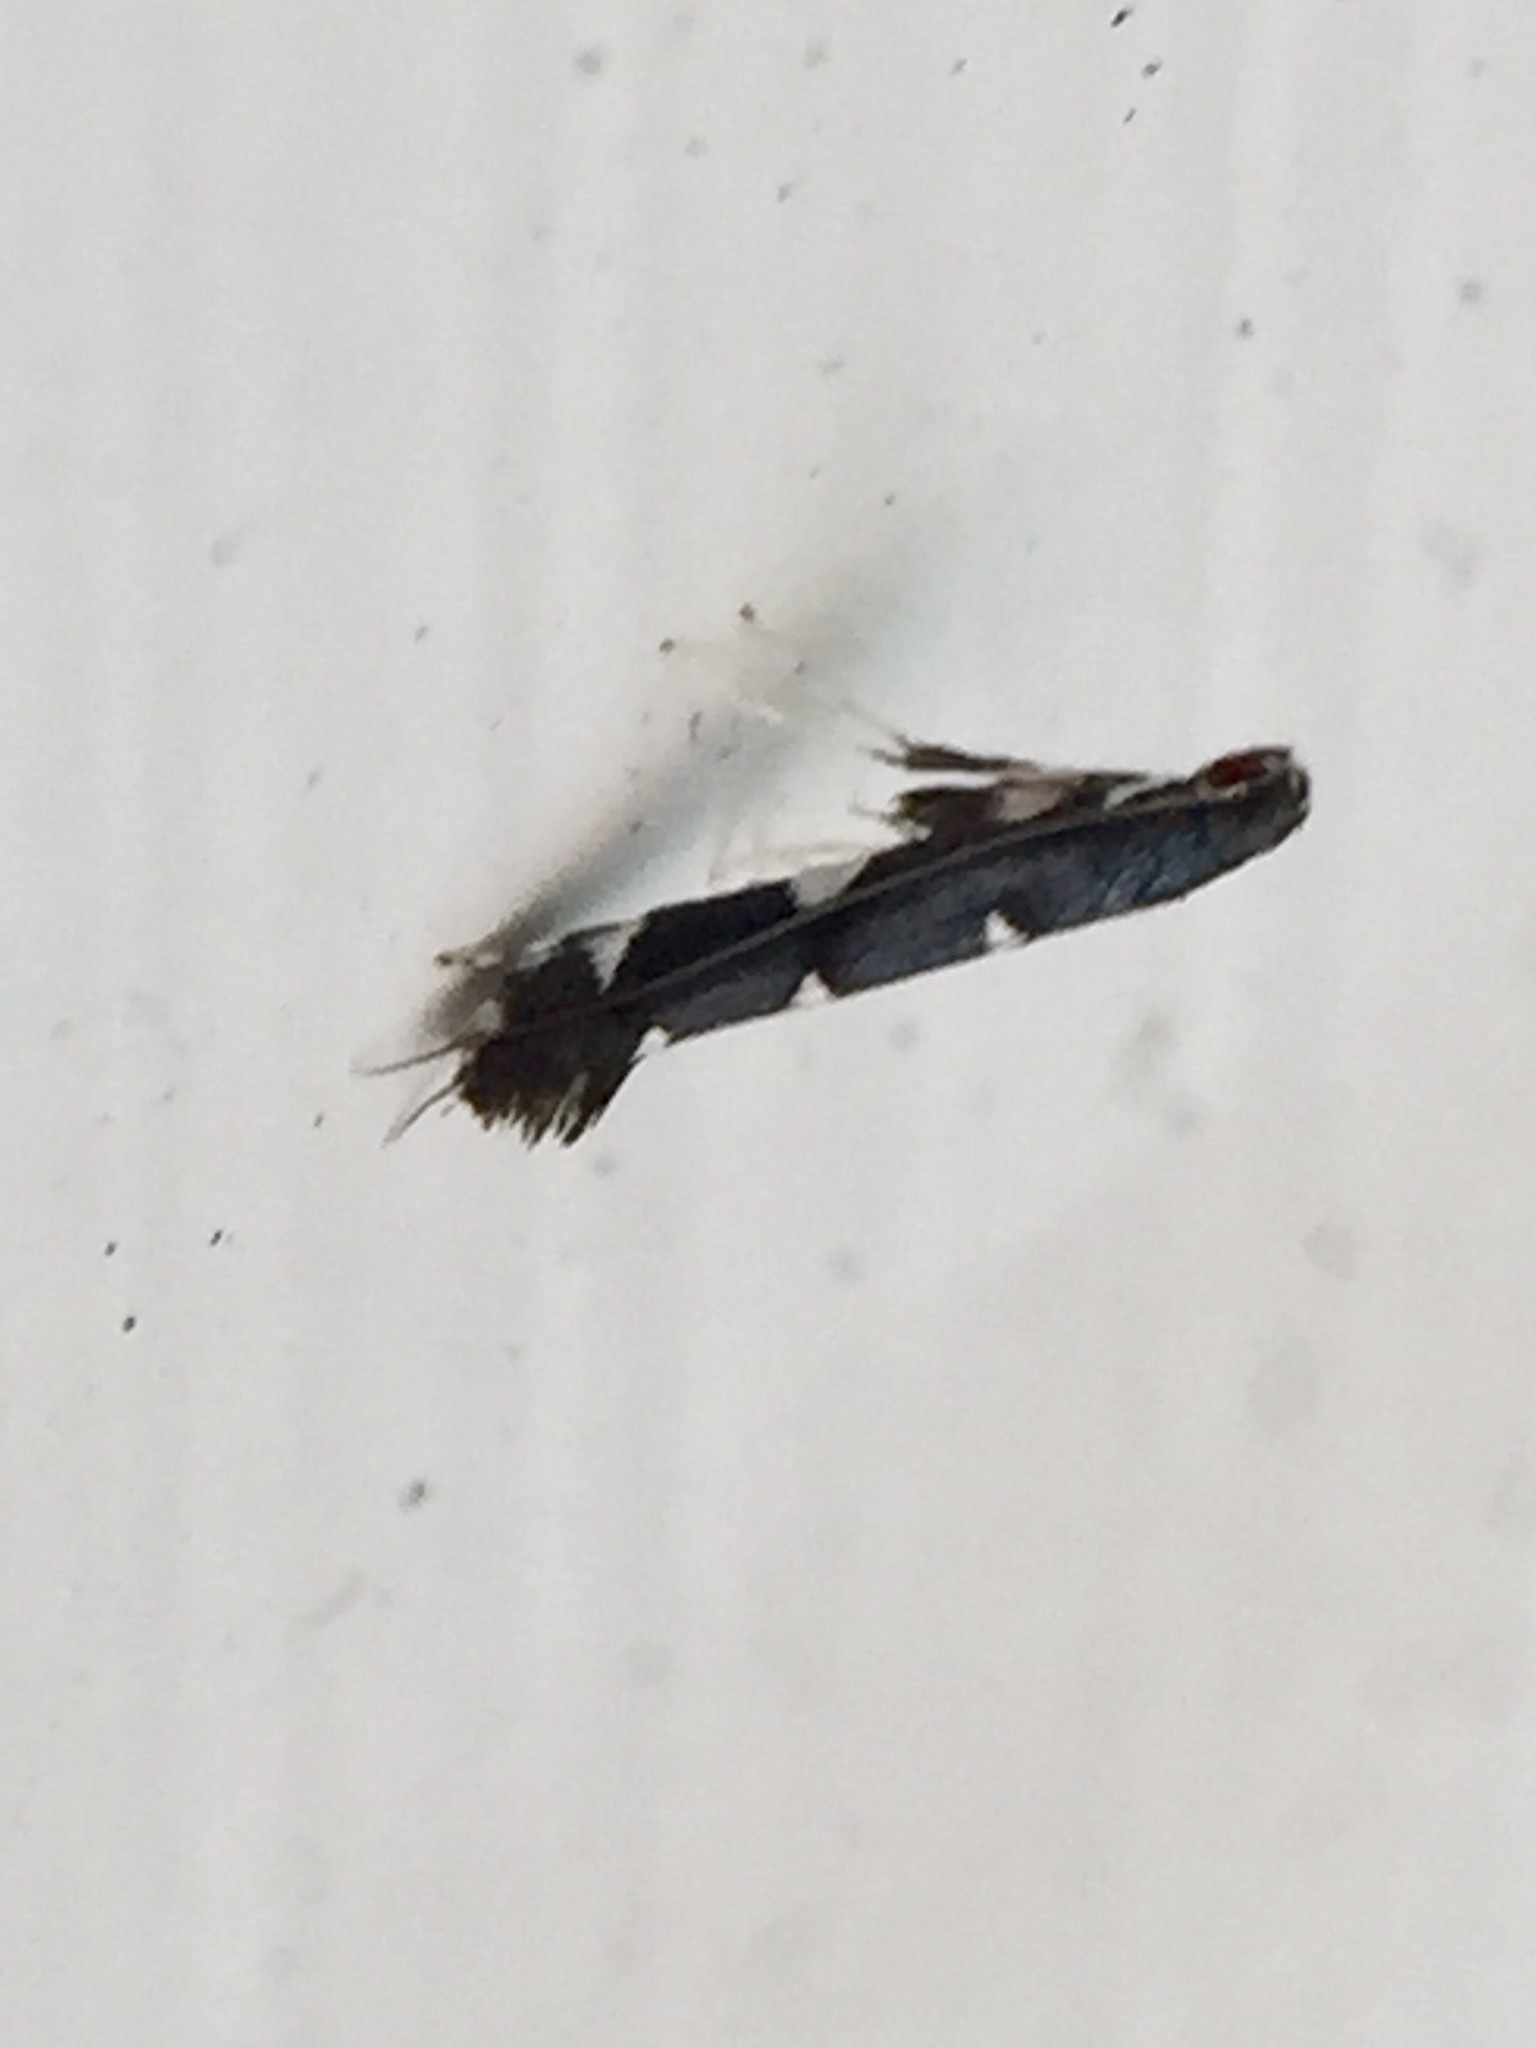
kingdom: Animalia
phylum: Arthropoda
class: Insecta
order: Lepidoptera
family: Gracillariidae
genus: Corythoxestis
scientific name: Corythoxestis zorionella
